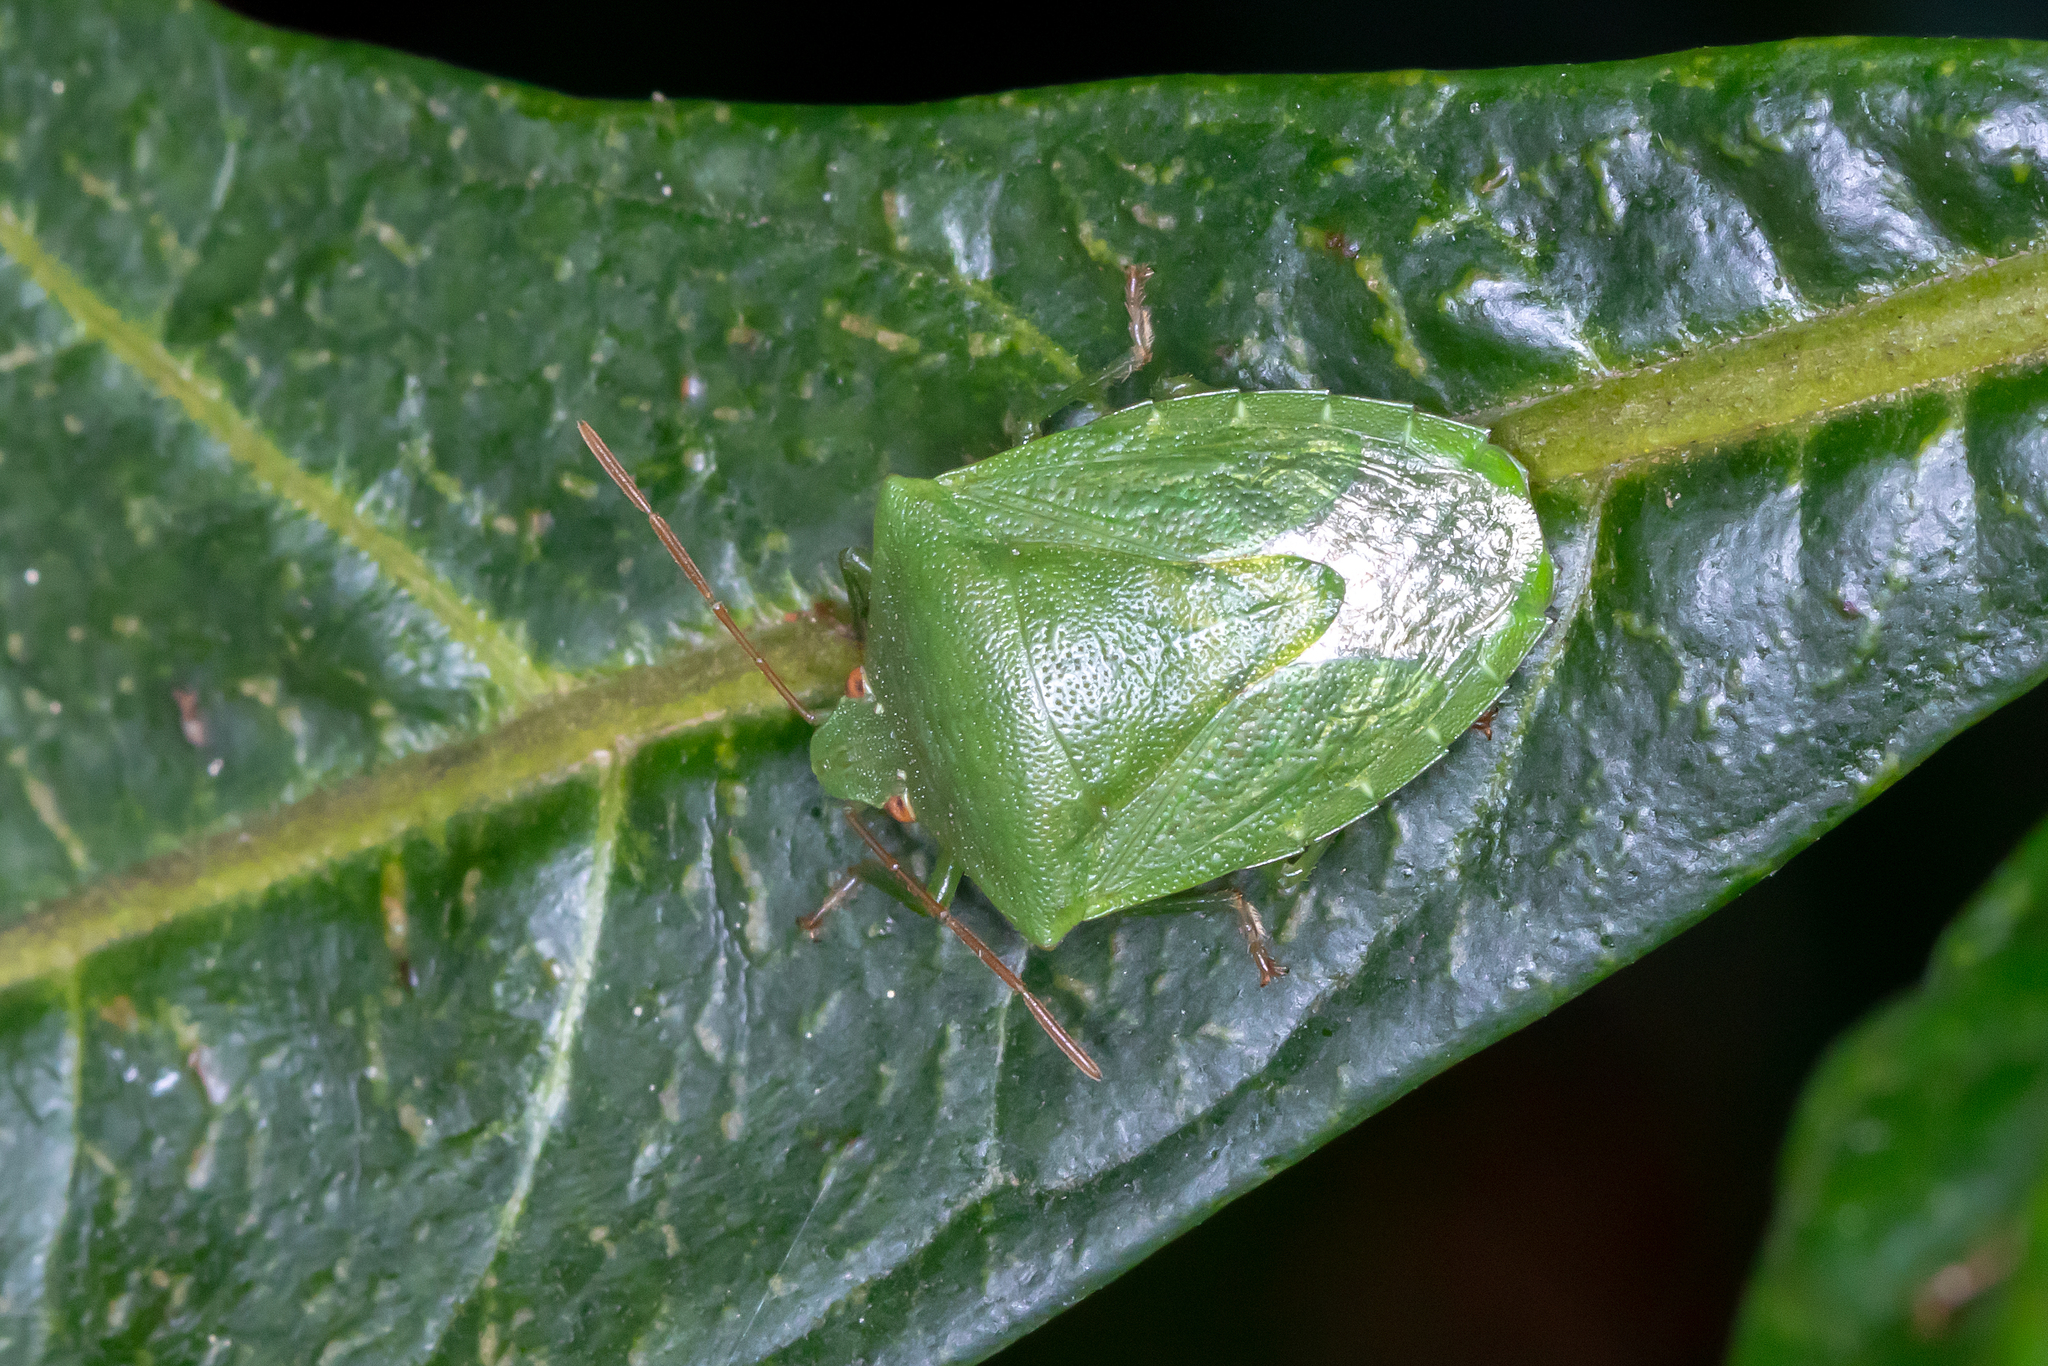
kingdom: Animalia
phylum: Arthropoda
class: Insecta
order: Hemiptera
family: Pentatomidae
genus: Cuspicona
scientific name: Cuspicona simplex
